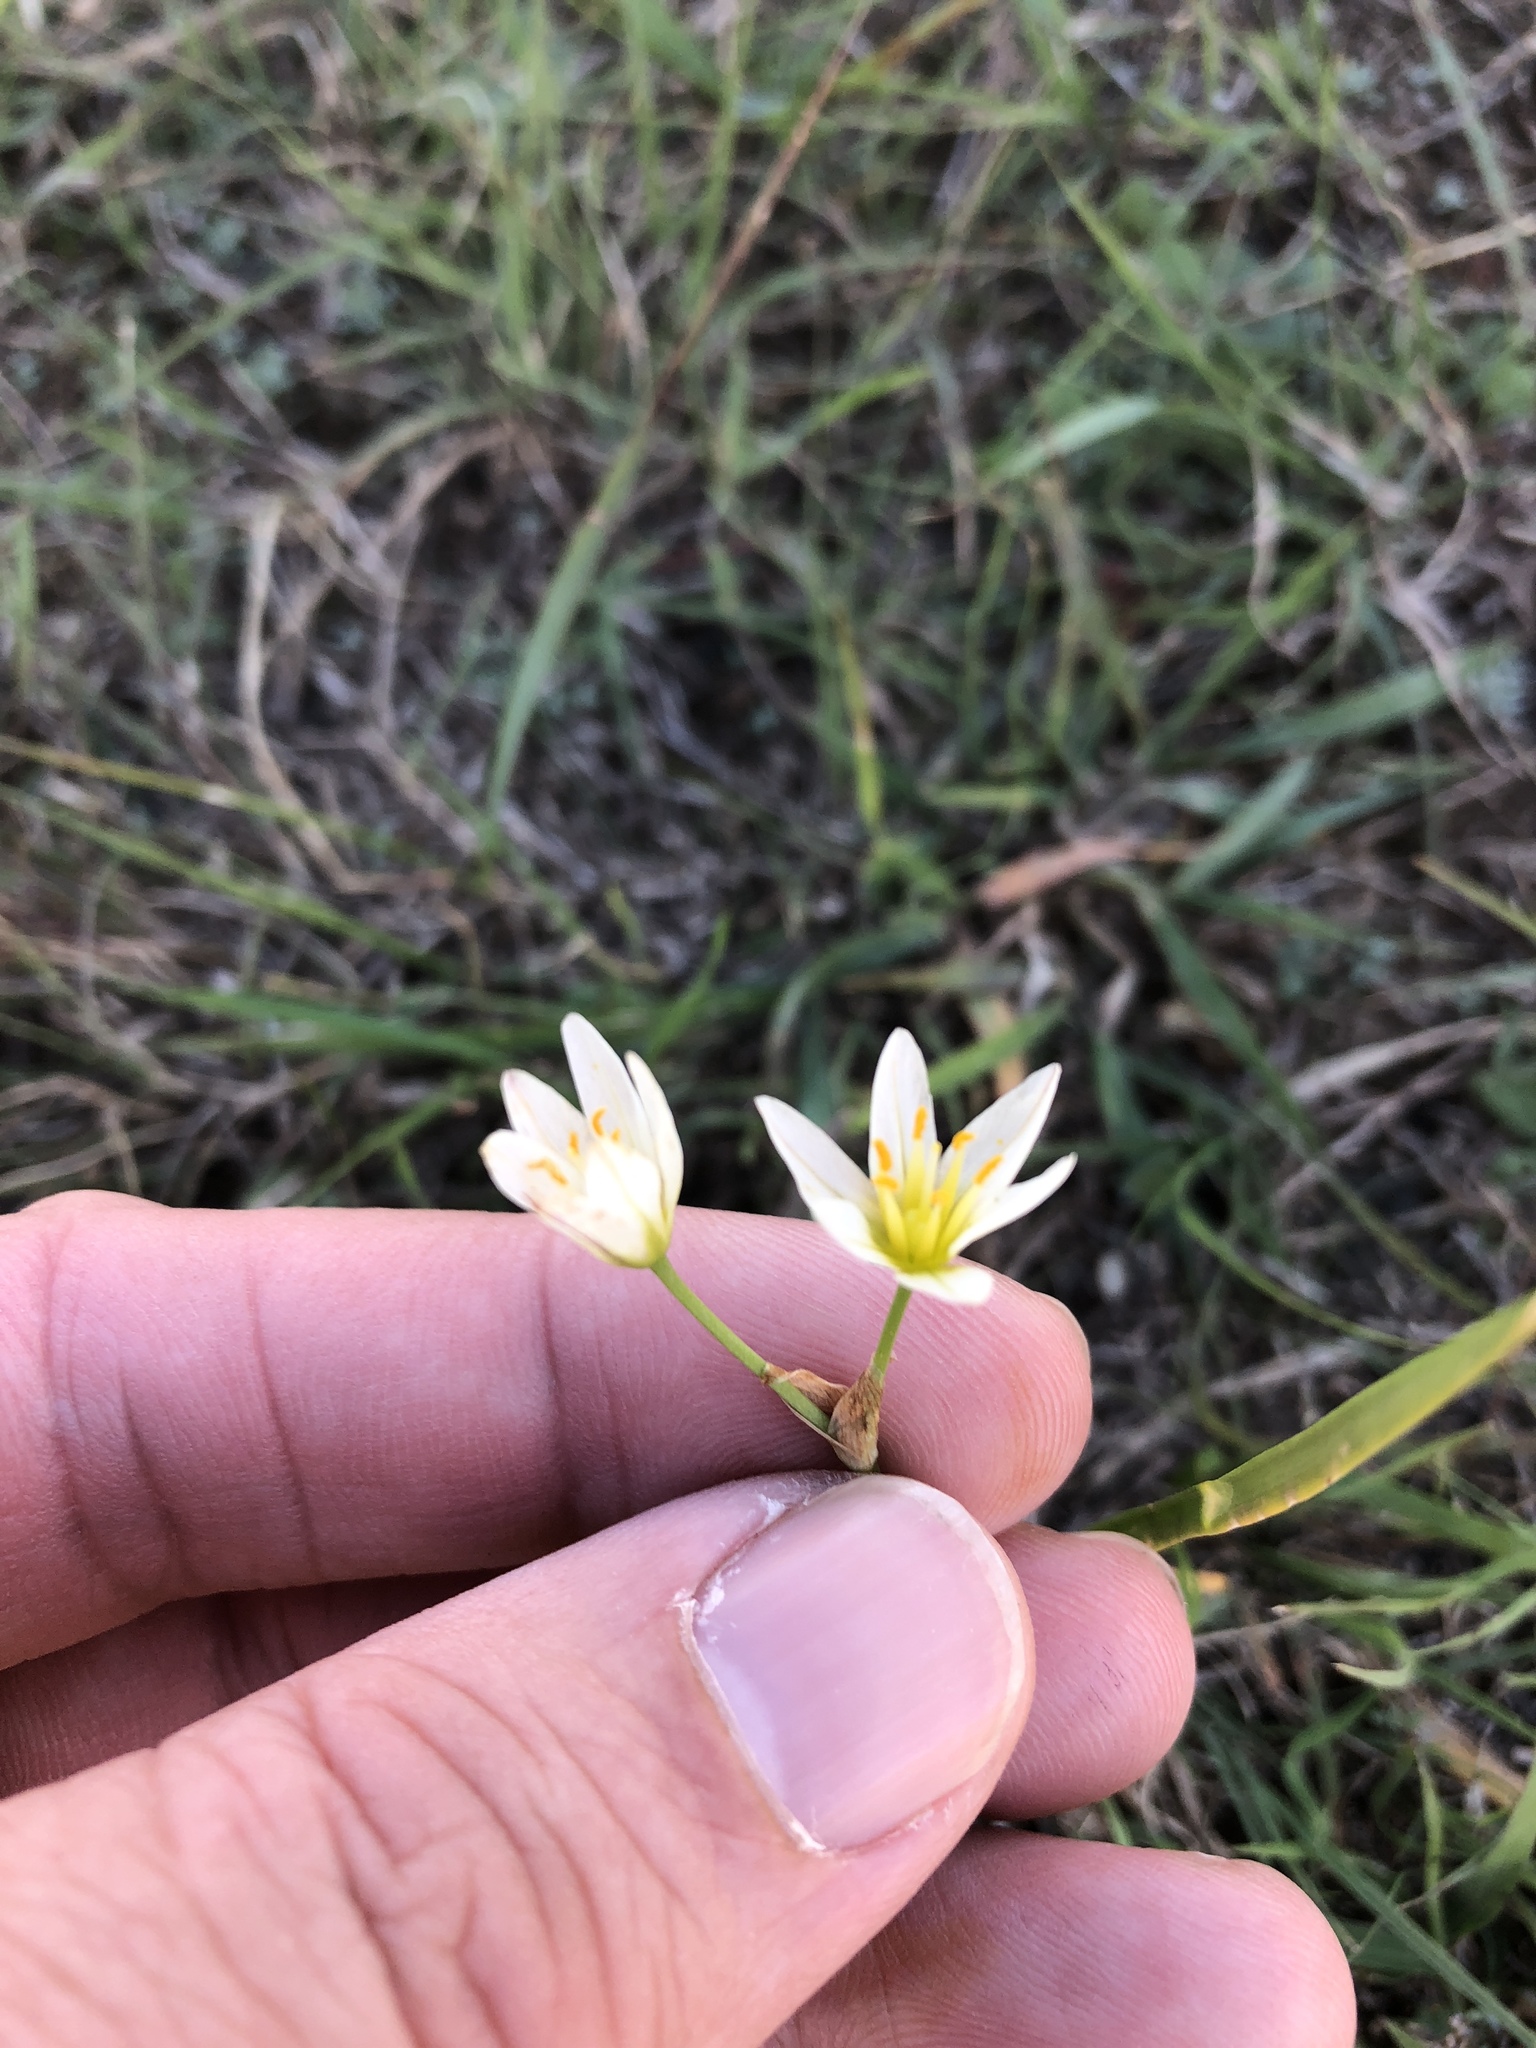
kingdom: Plantae
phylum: Tracheophyta
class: Liliopsida
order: Asparagales
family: Amaryllidaceae
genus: Nothoscordum
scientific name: Nothoscordum bivalve
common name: Crow-poison
